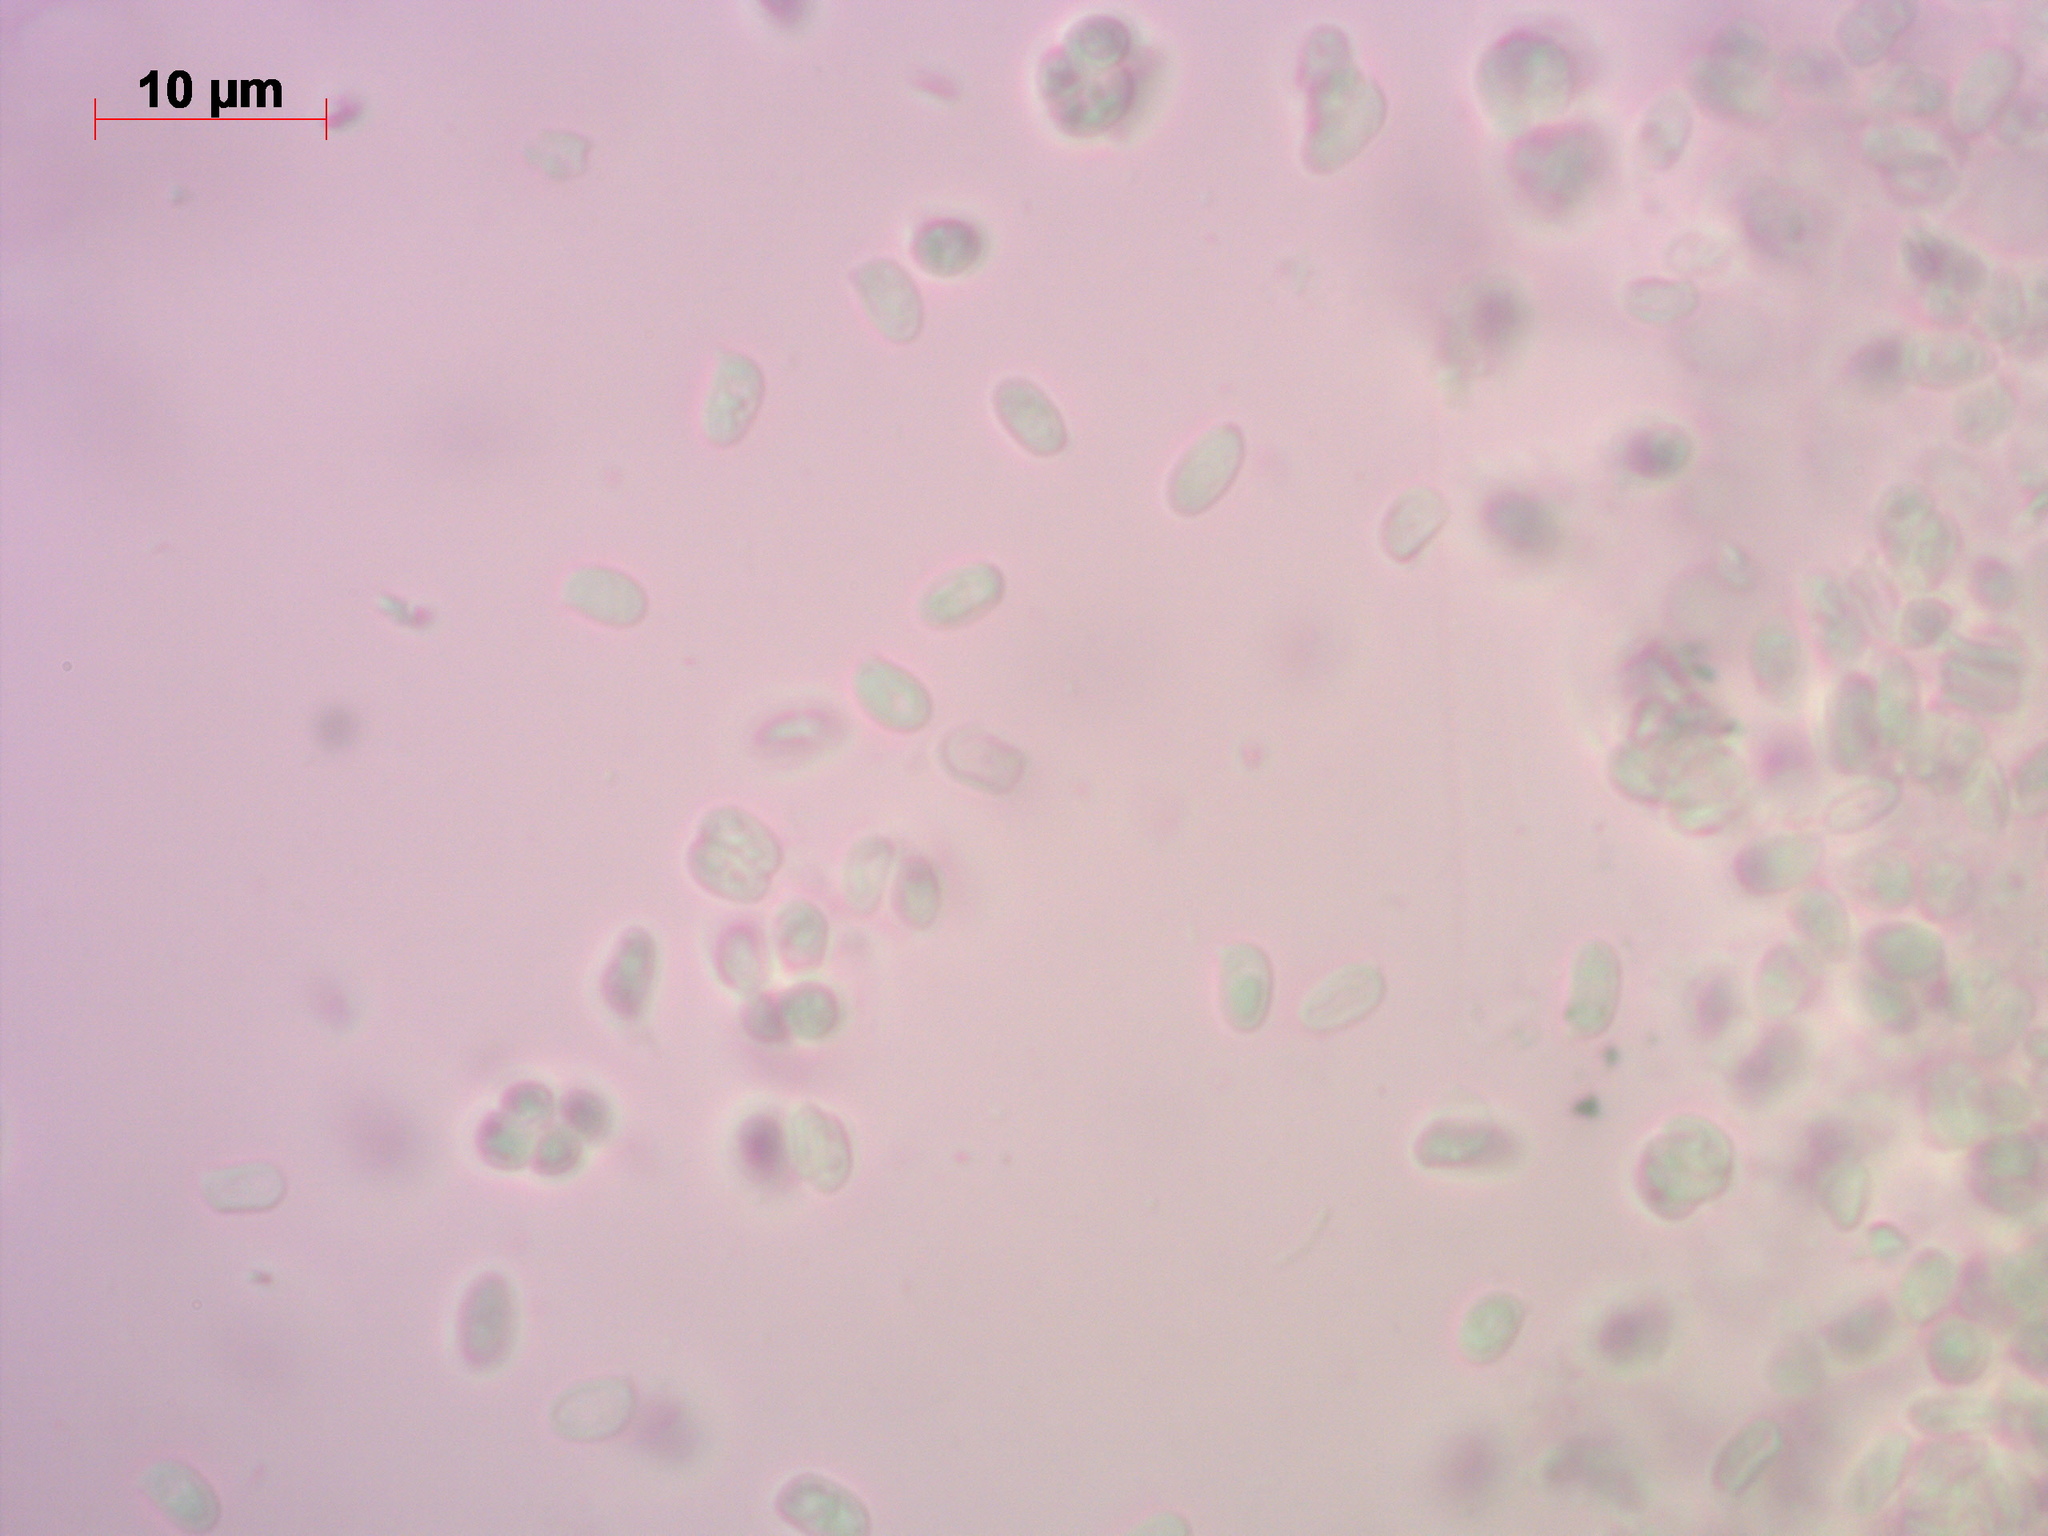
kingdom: Fungi
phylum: Basidiomycota
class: Agaricomycetes
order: Agaricales
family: Agaricaceae
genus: Cystolepiota
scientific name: Cystolepiota seminuda
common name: Bearded dapperling
